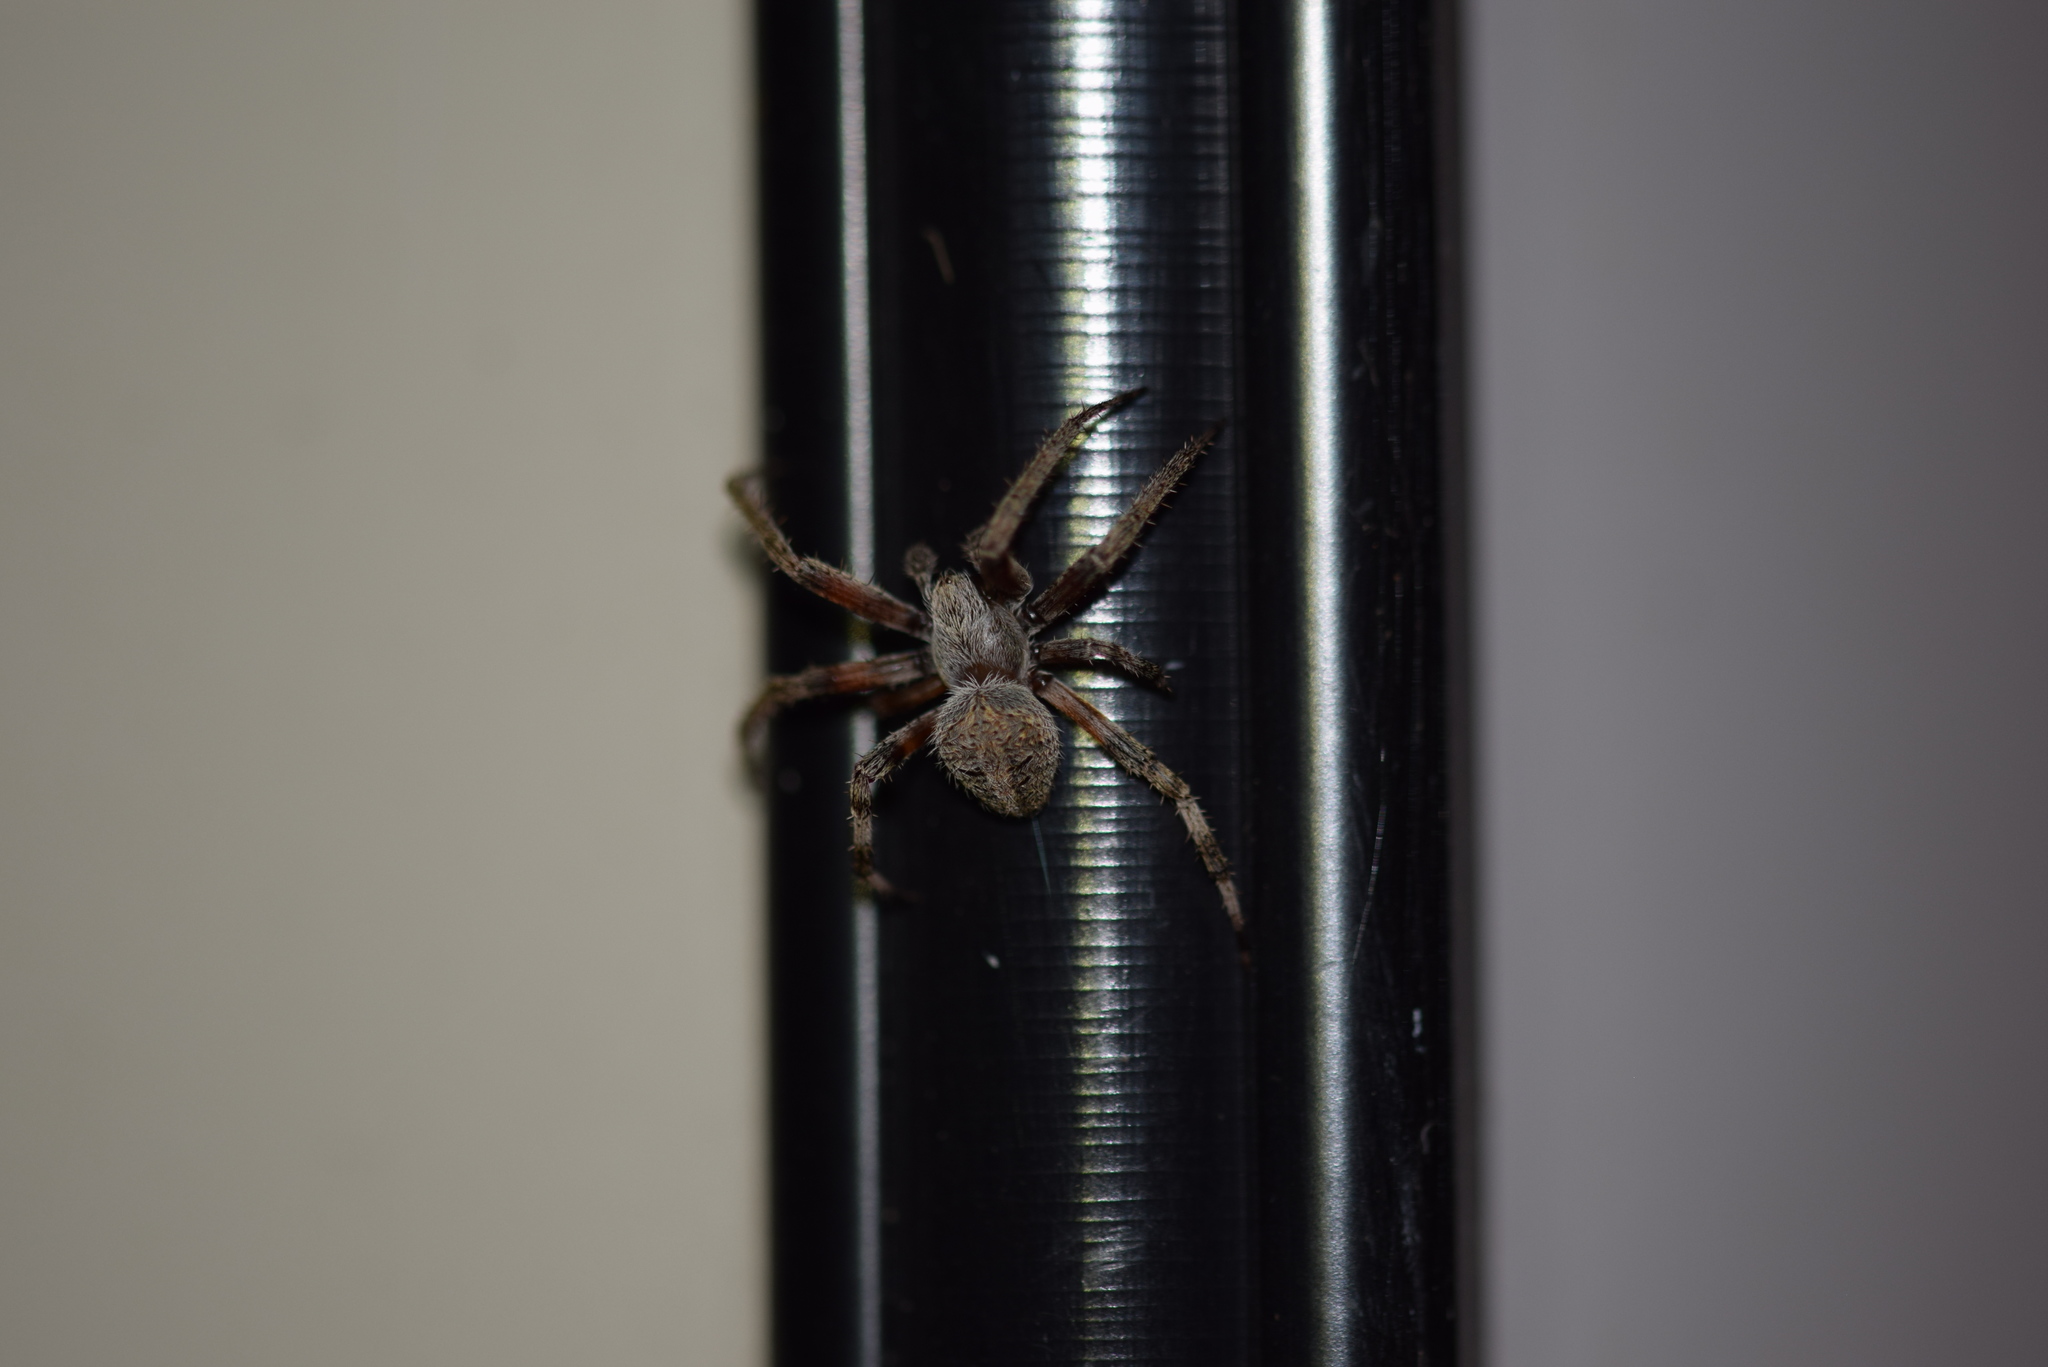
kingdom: Animalia
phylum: Arthropoda
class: Arachnida
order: Araneae
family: Araneidae
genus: Neoscona
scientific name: Neoscona crucifera
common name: Spotted orbweaver
